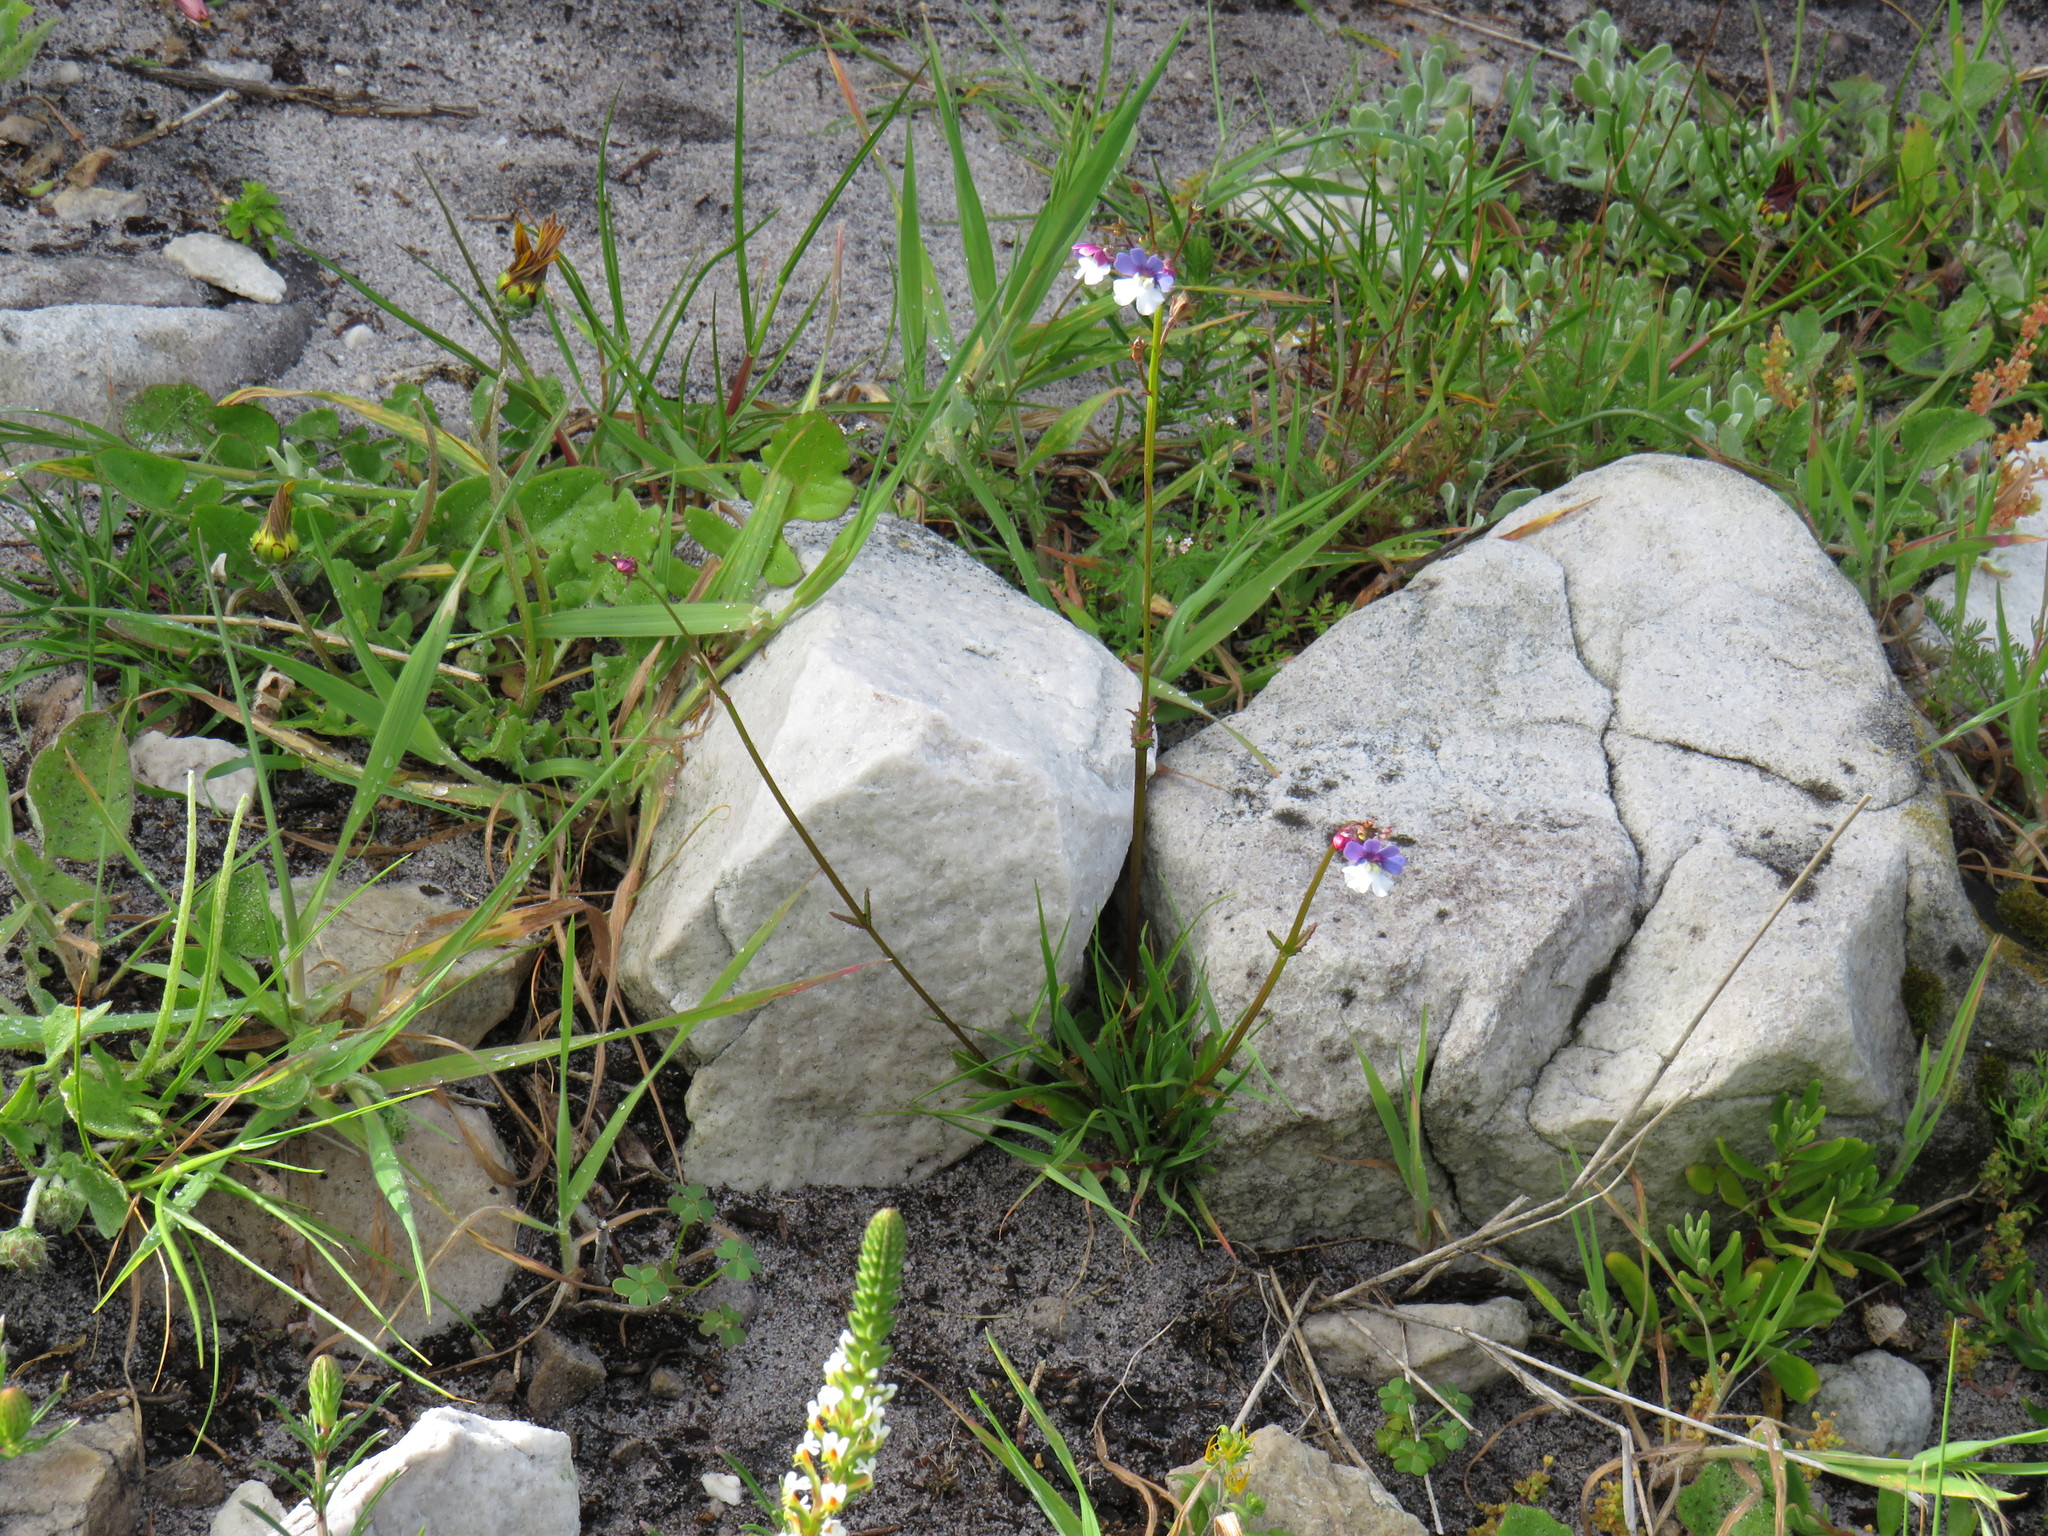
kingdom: Plantae
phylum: Tracheophyta
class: Magnoliopsida
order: Lamiales
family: Scrophulariaceae
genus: Nemesia
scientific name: Nemesia affinis
